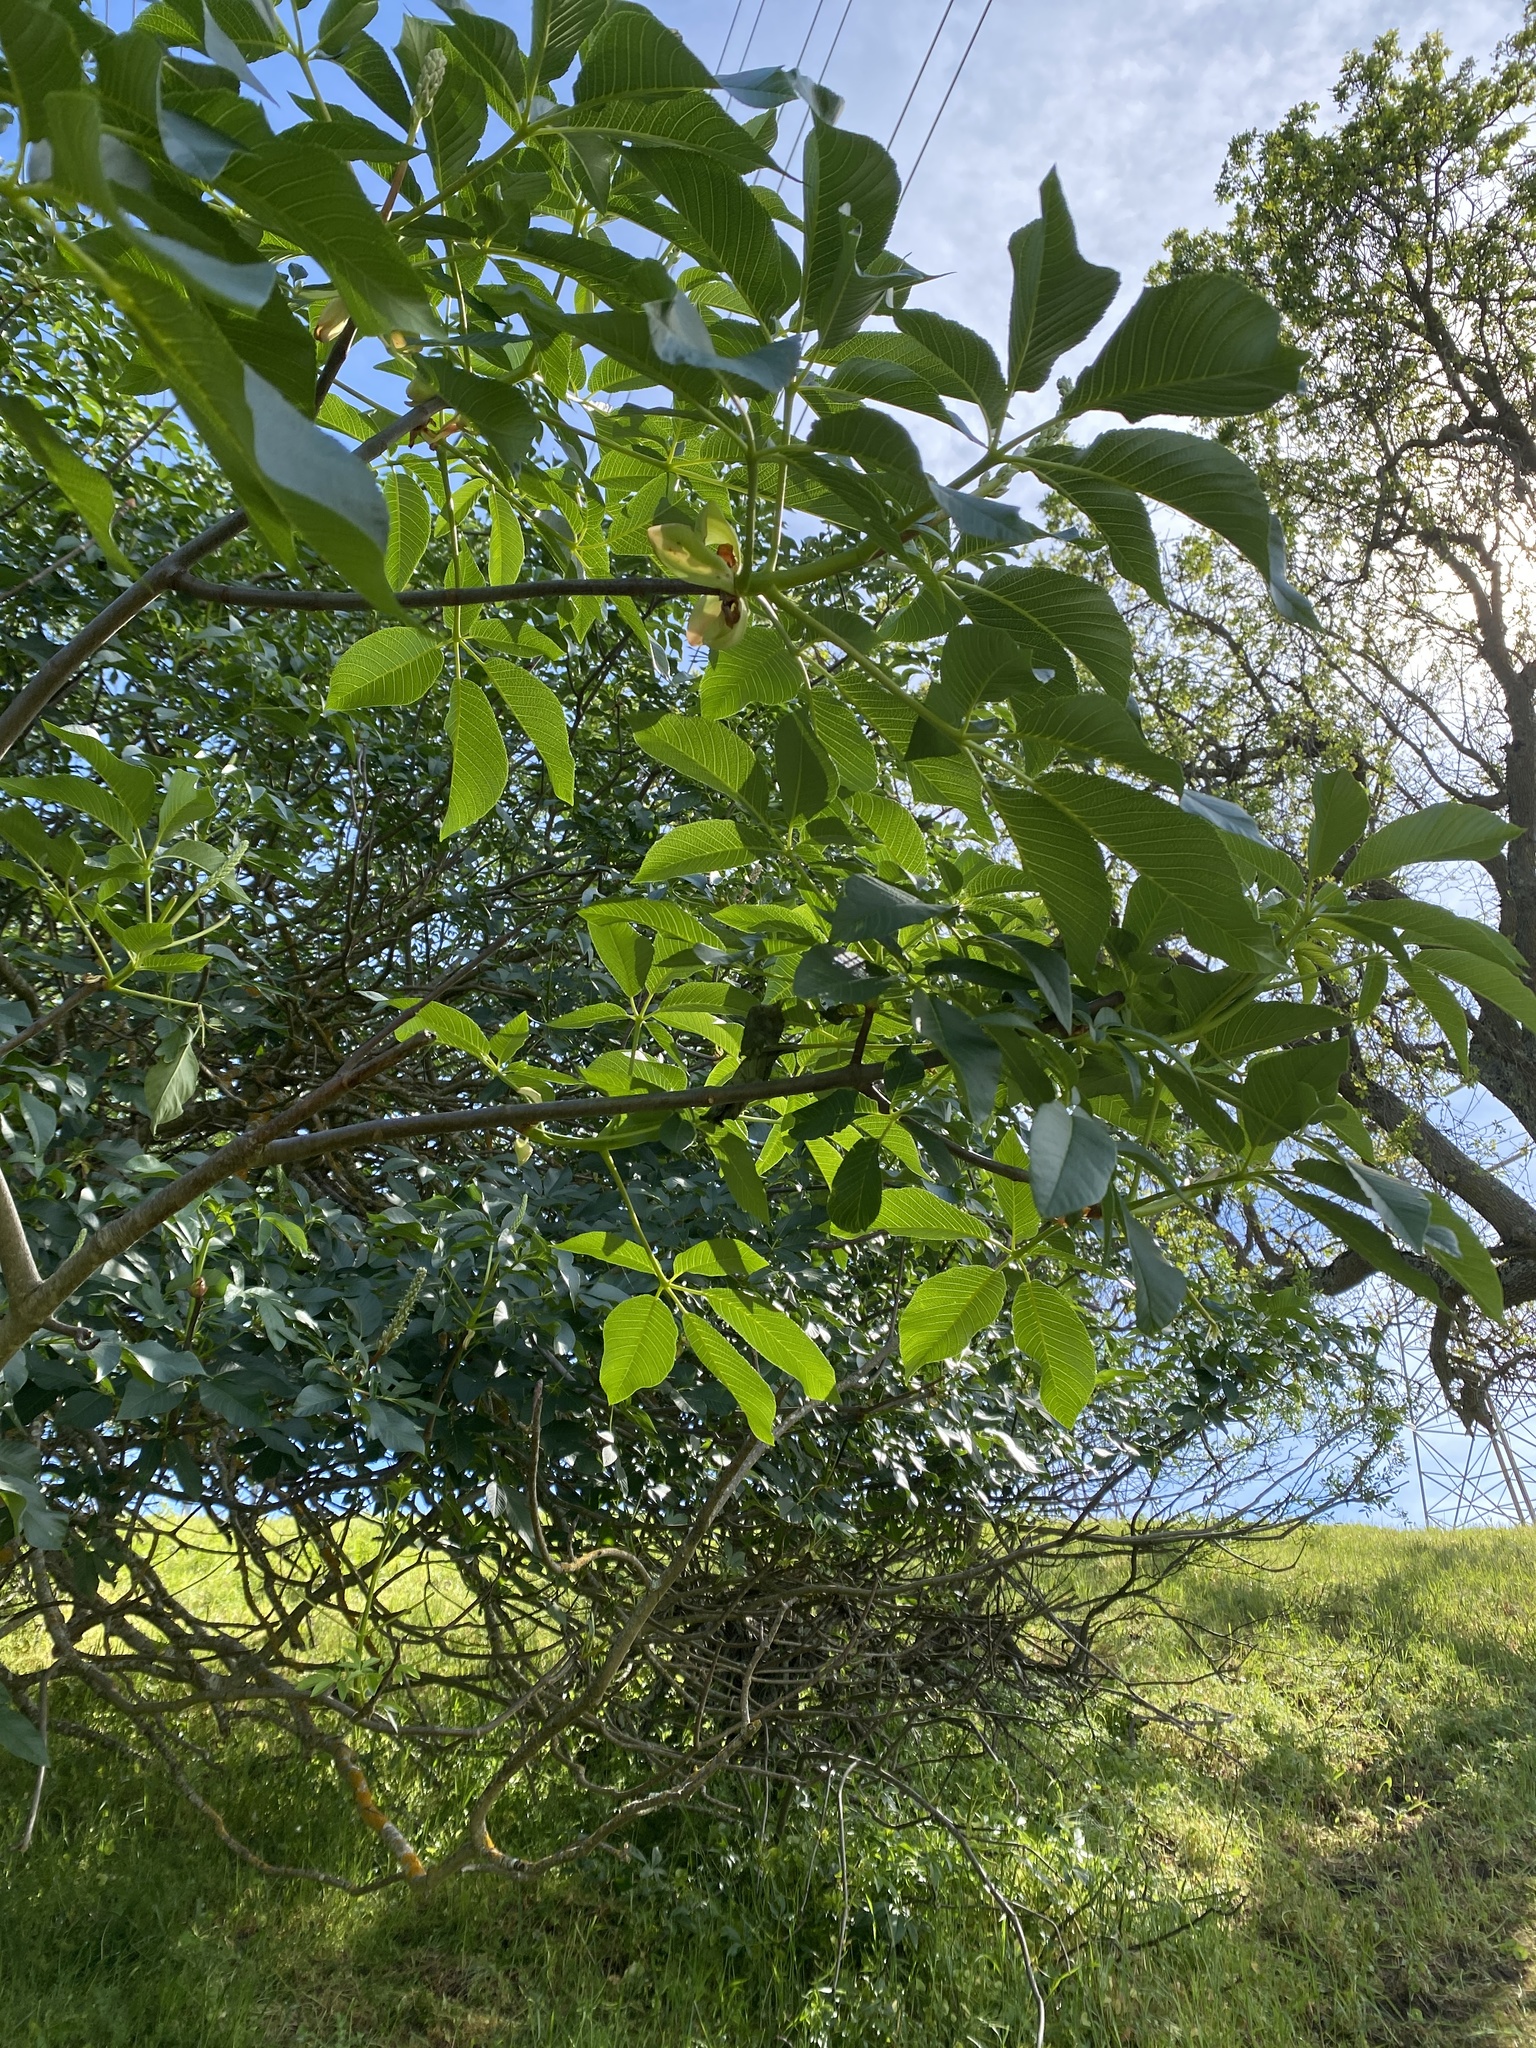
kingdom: Plantae
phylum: Tracheophyta
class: Magnoliopsida
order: Sapindales
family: Sapindaceae
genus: Aesculus
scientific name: Aesculus californica
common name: California buckeye
